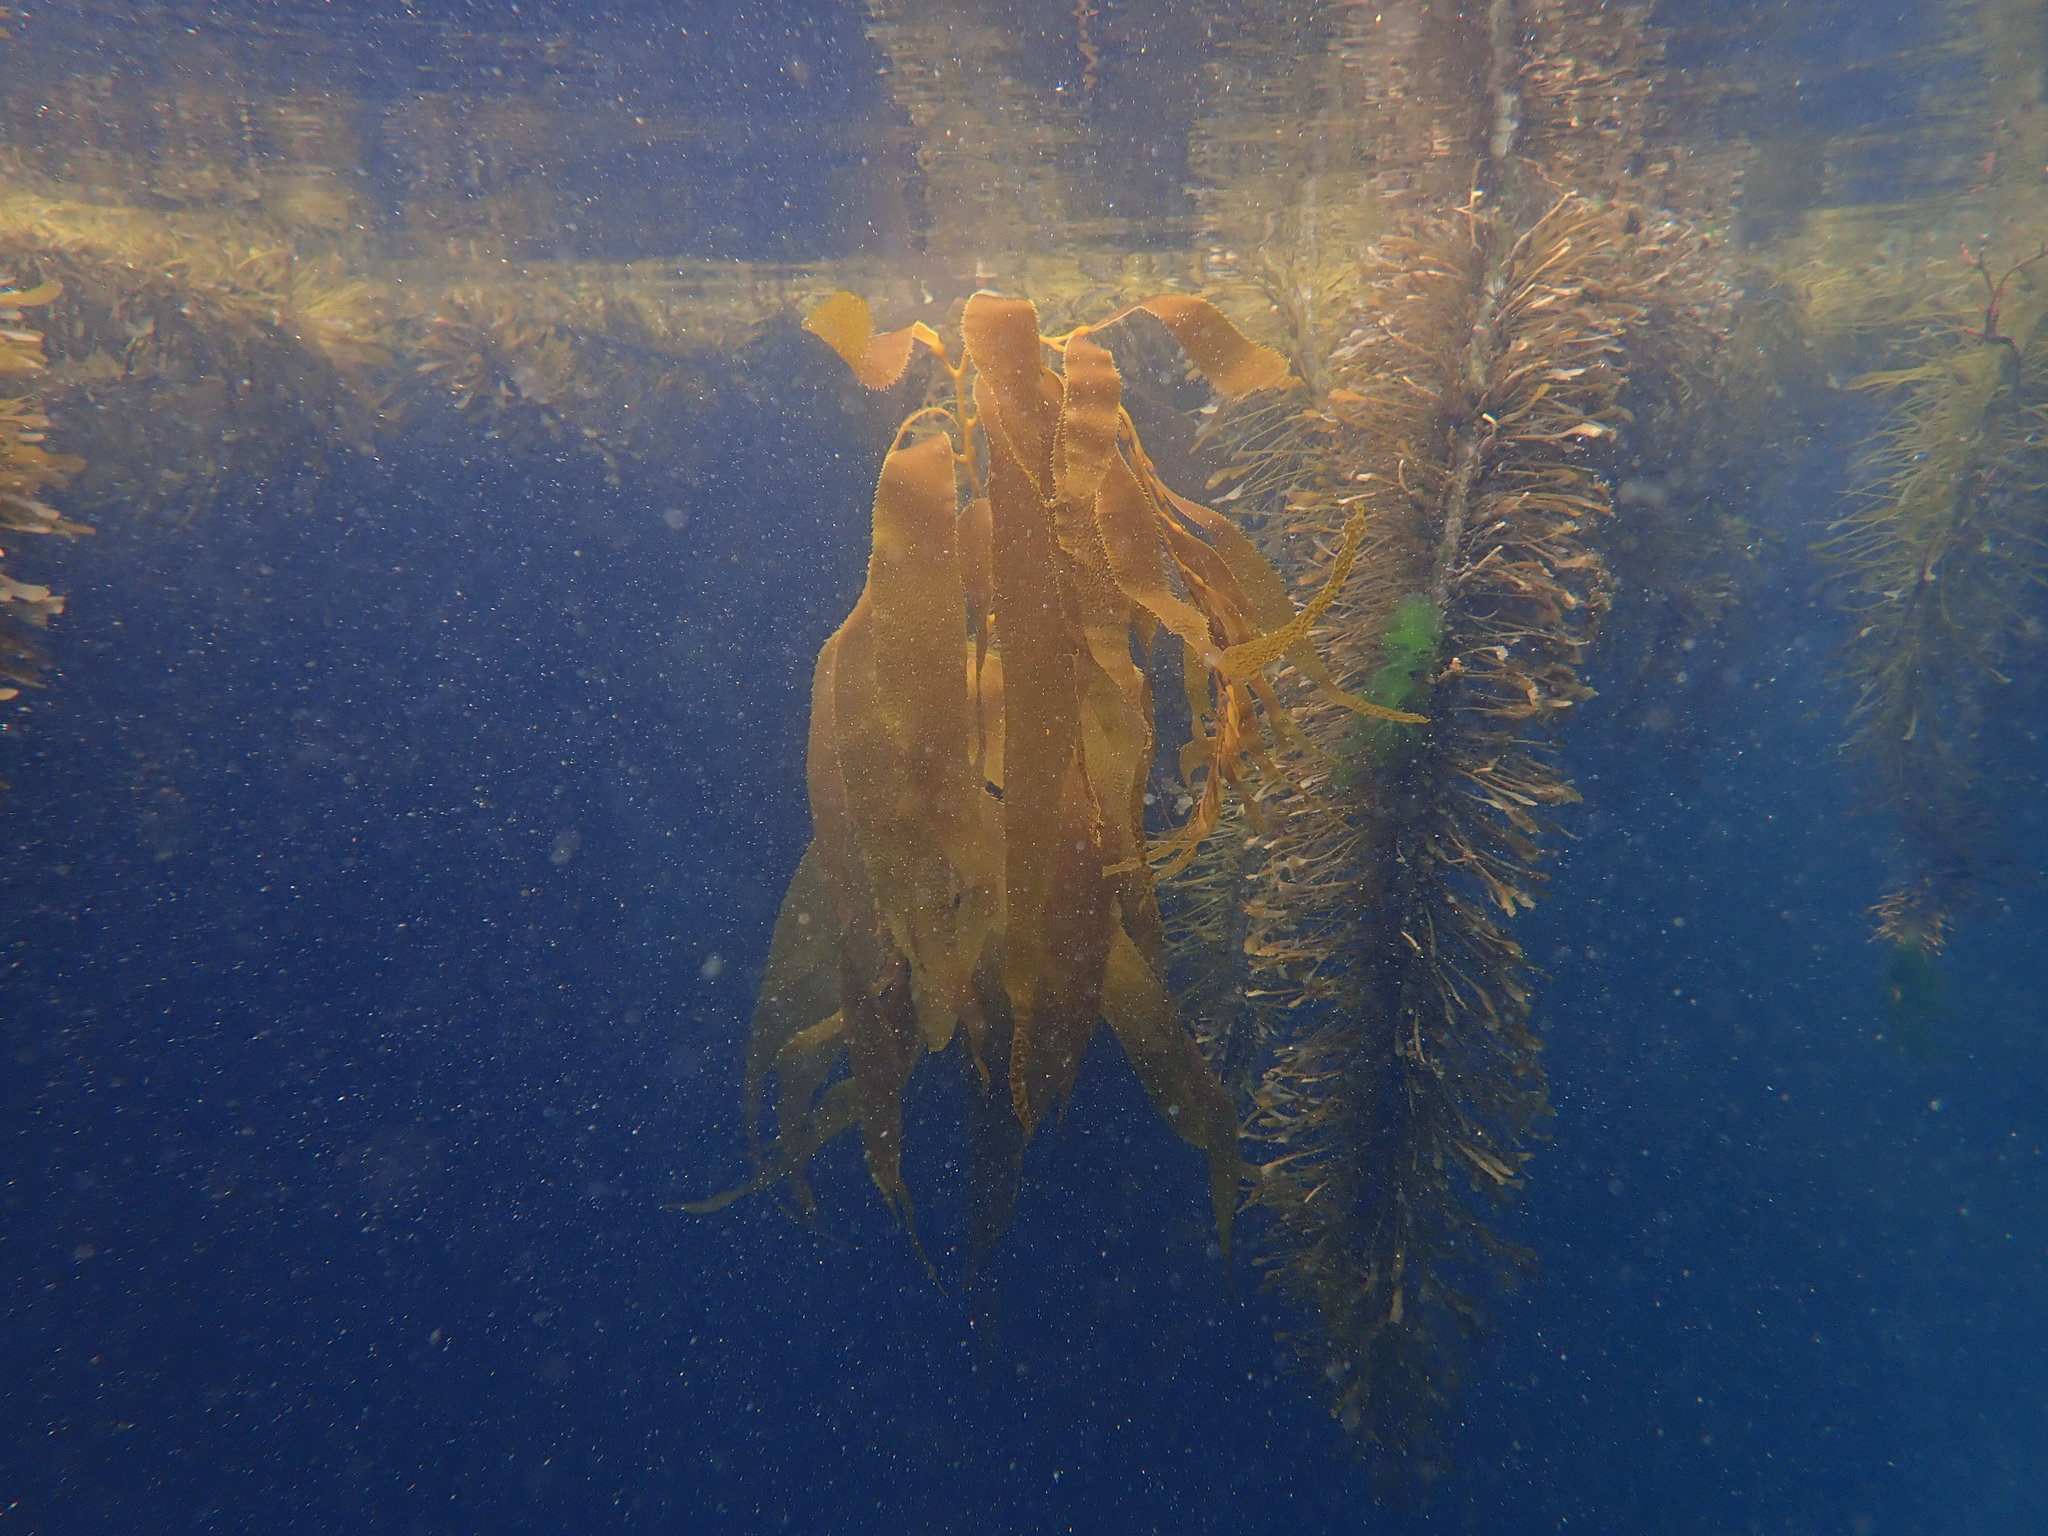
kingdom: Chromista
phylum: Ochrophyta
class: Phaeophyceae
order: Laminariales
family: Laminariaceae
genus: Macrocystis
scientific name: Macrocystis pyrifera
